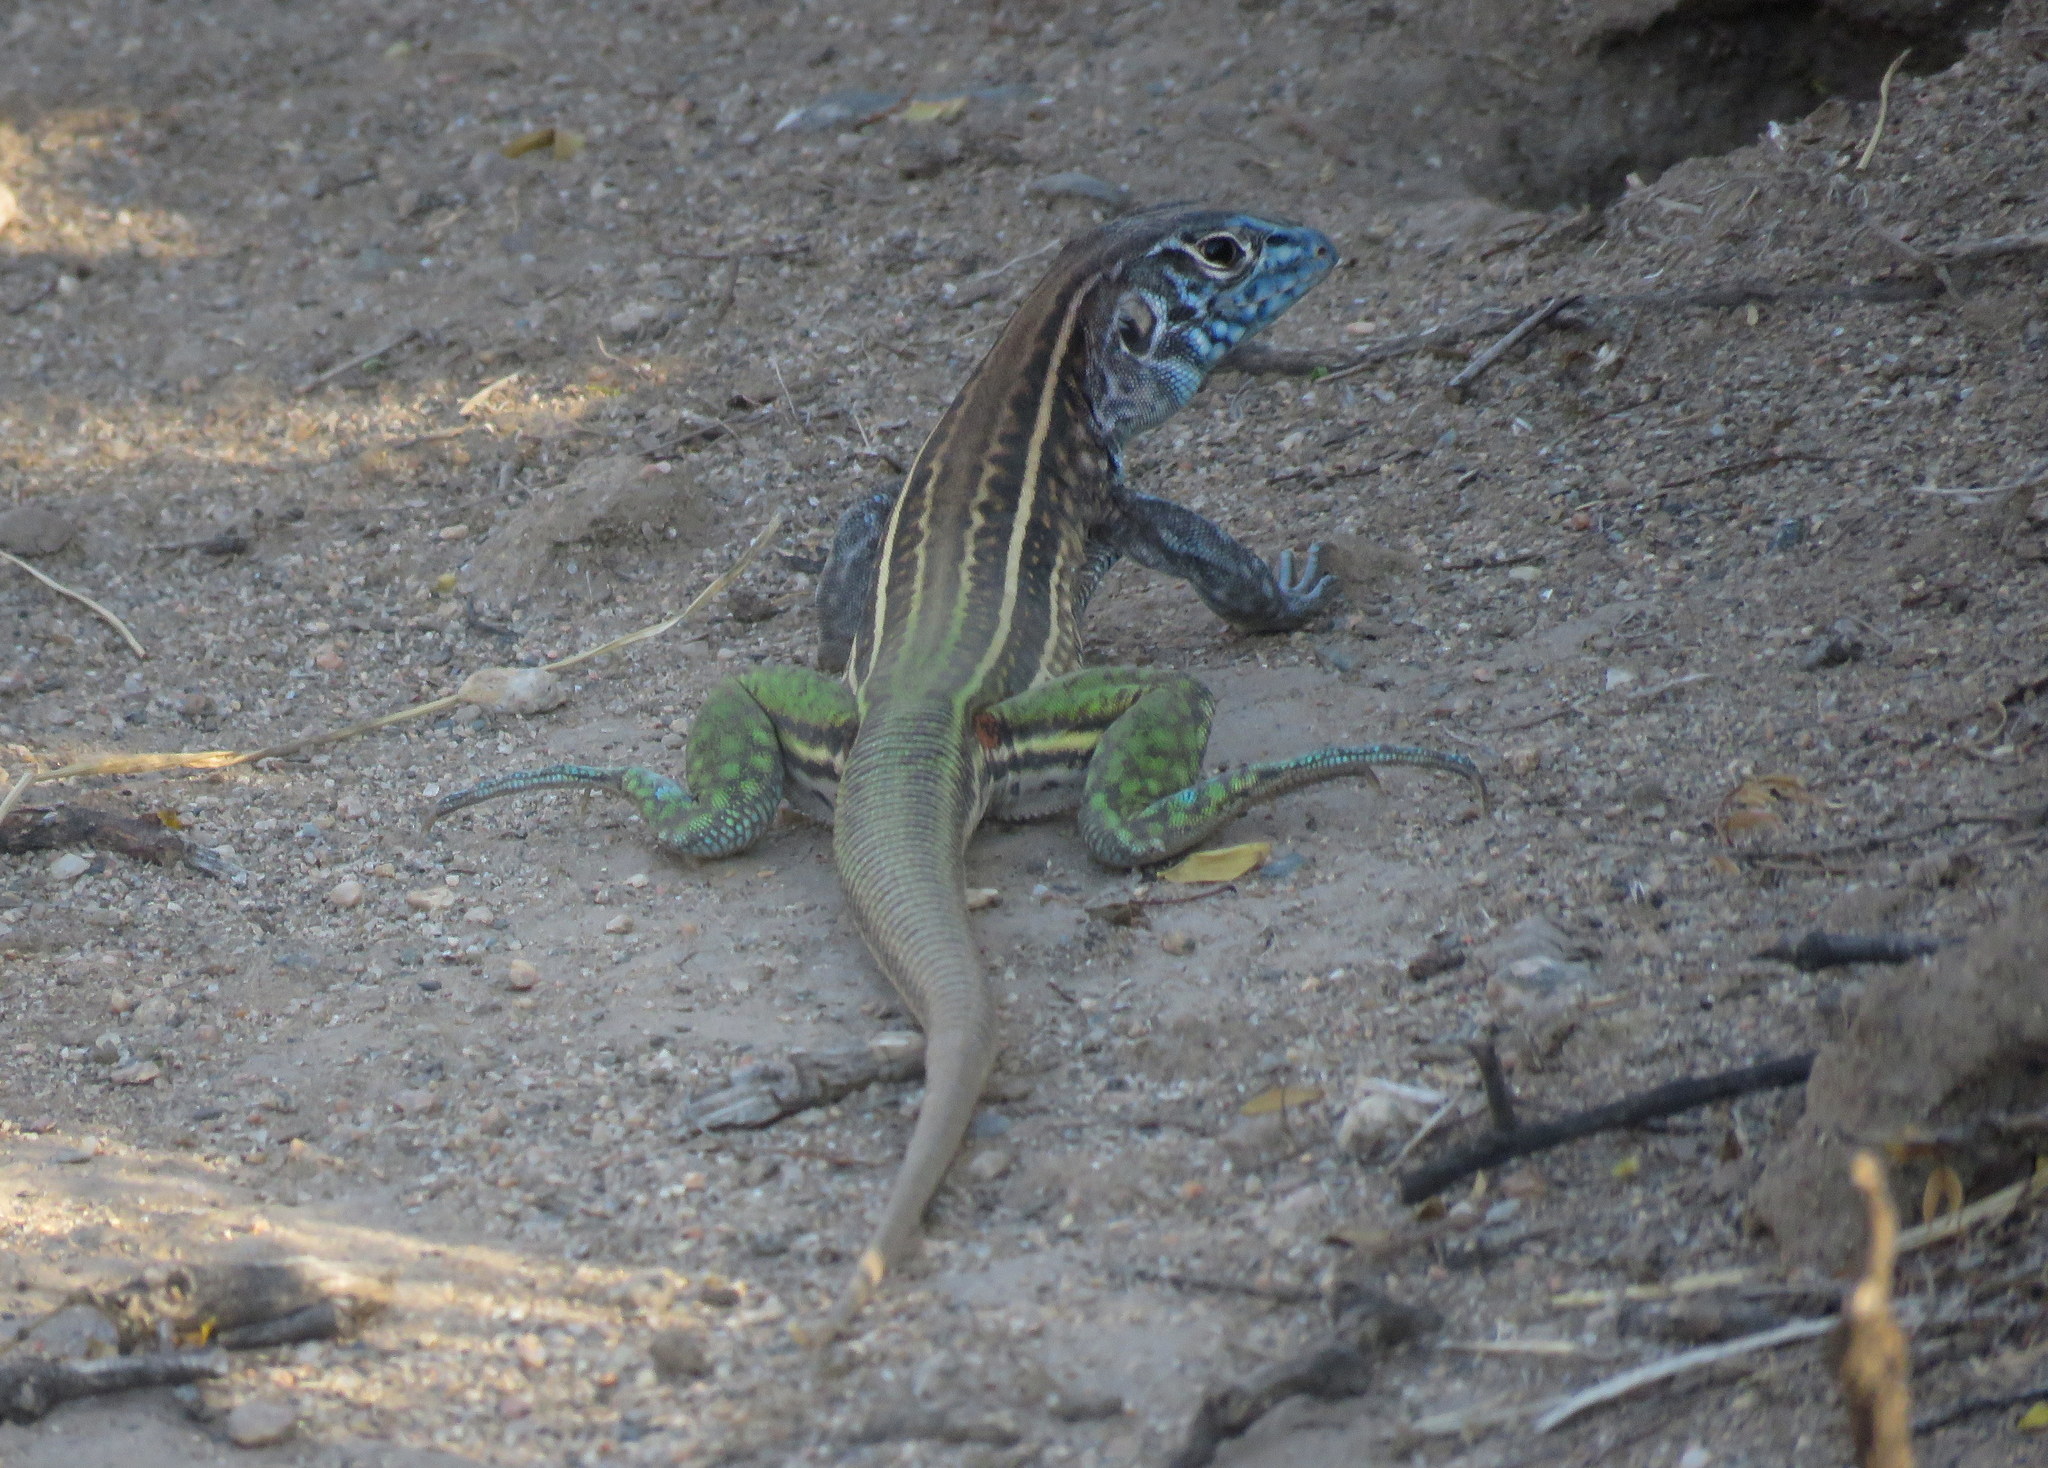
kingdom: Animalia
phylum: Chordata
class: Squamata
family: Teiidae
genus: Teius
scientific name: Teius teyou
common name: Four-toed tegu
